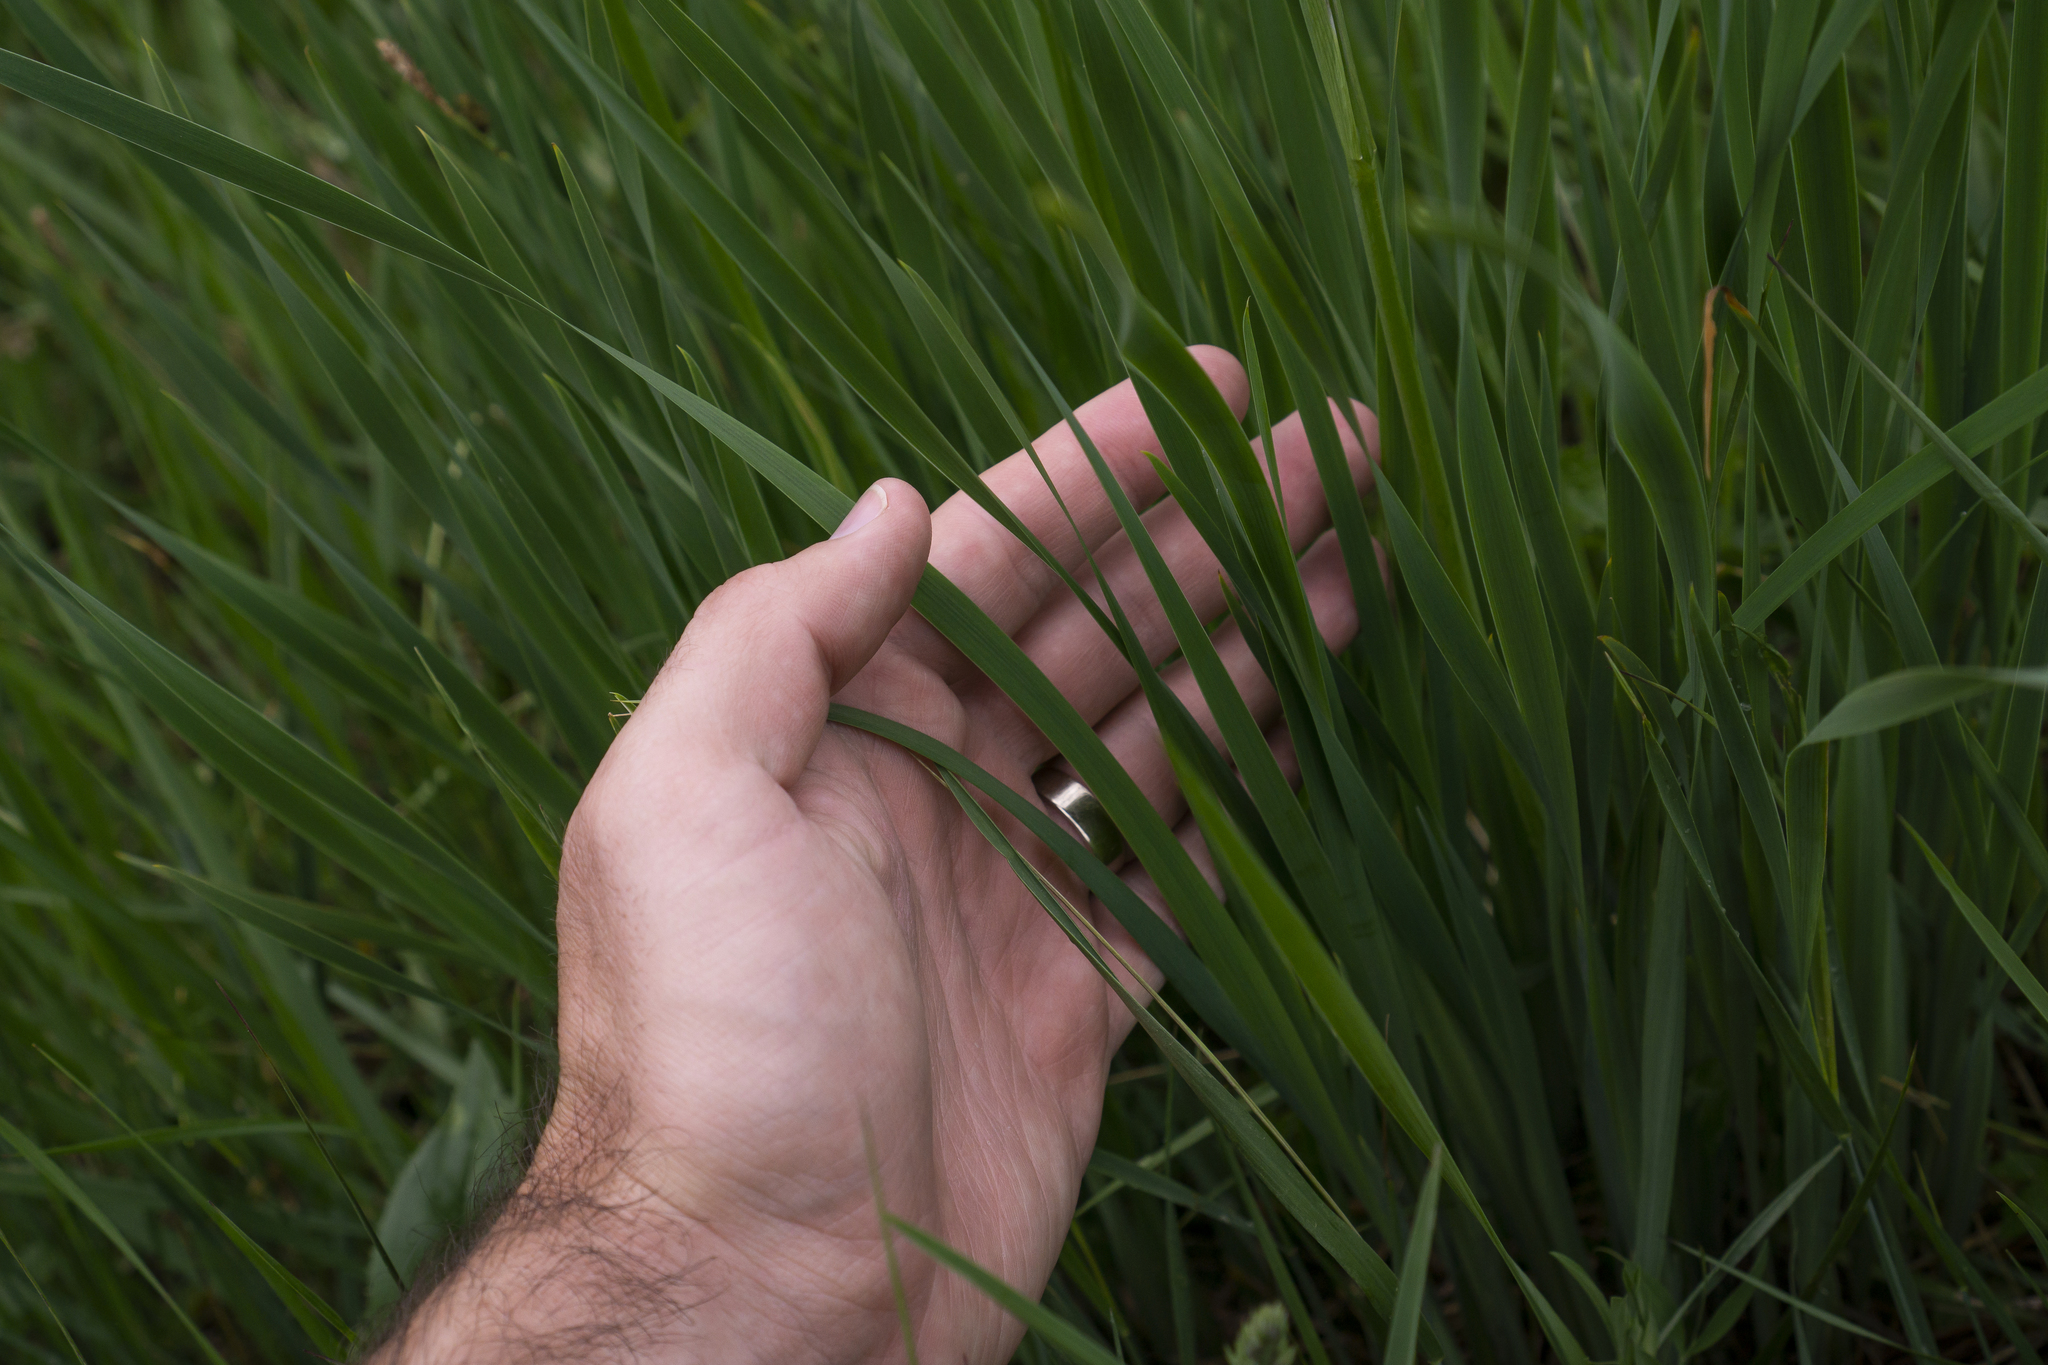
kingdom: Plantae
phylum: Tracheophyta
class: Liliopsida
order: Asparagales
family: Iridaceae
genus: Iris
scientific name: Iris sibirica
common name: Siberian iris
